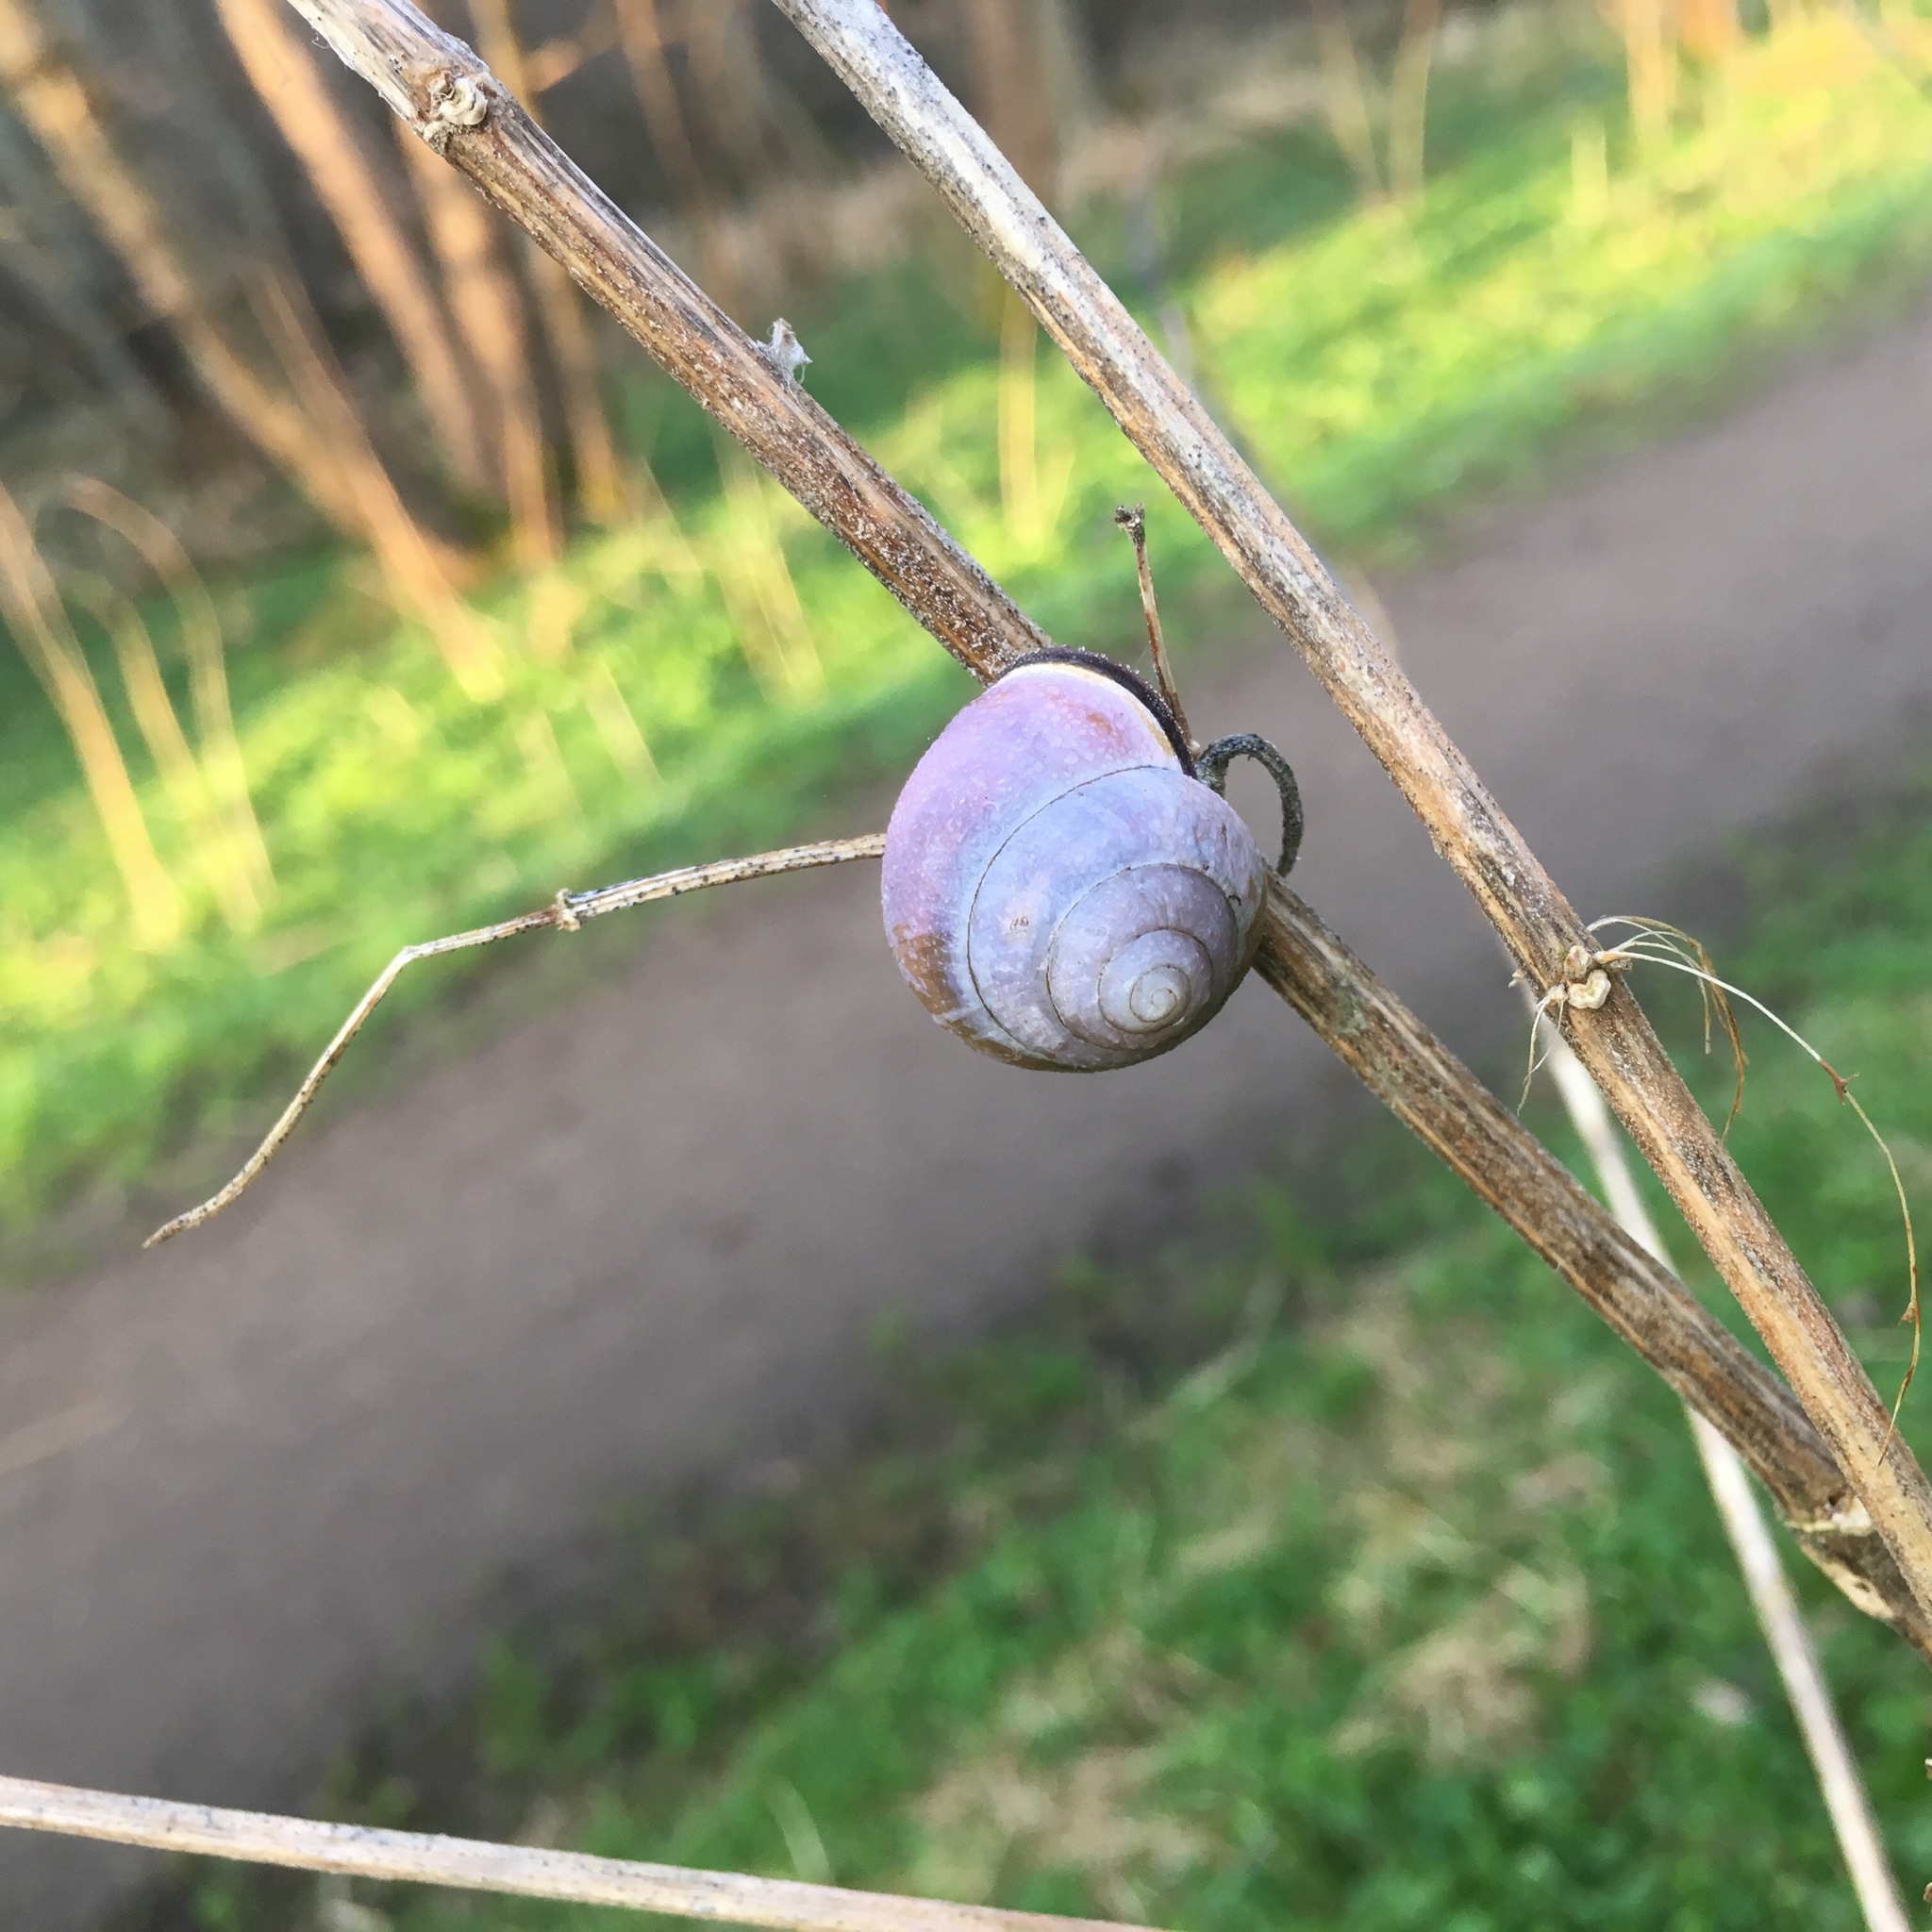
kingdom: Animalia
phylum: Mollusca
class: Gastropoda
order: Stylommatophora
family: Helicidae
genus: Cepaea
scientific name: Cepaea nemoralis
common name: Grovesnail
